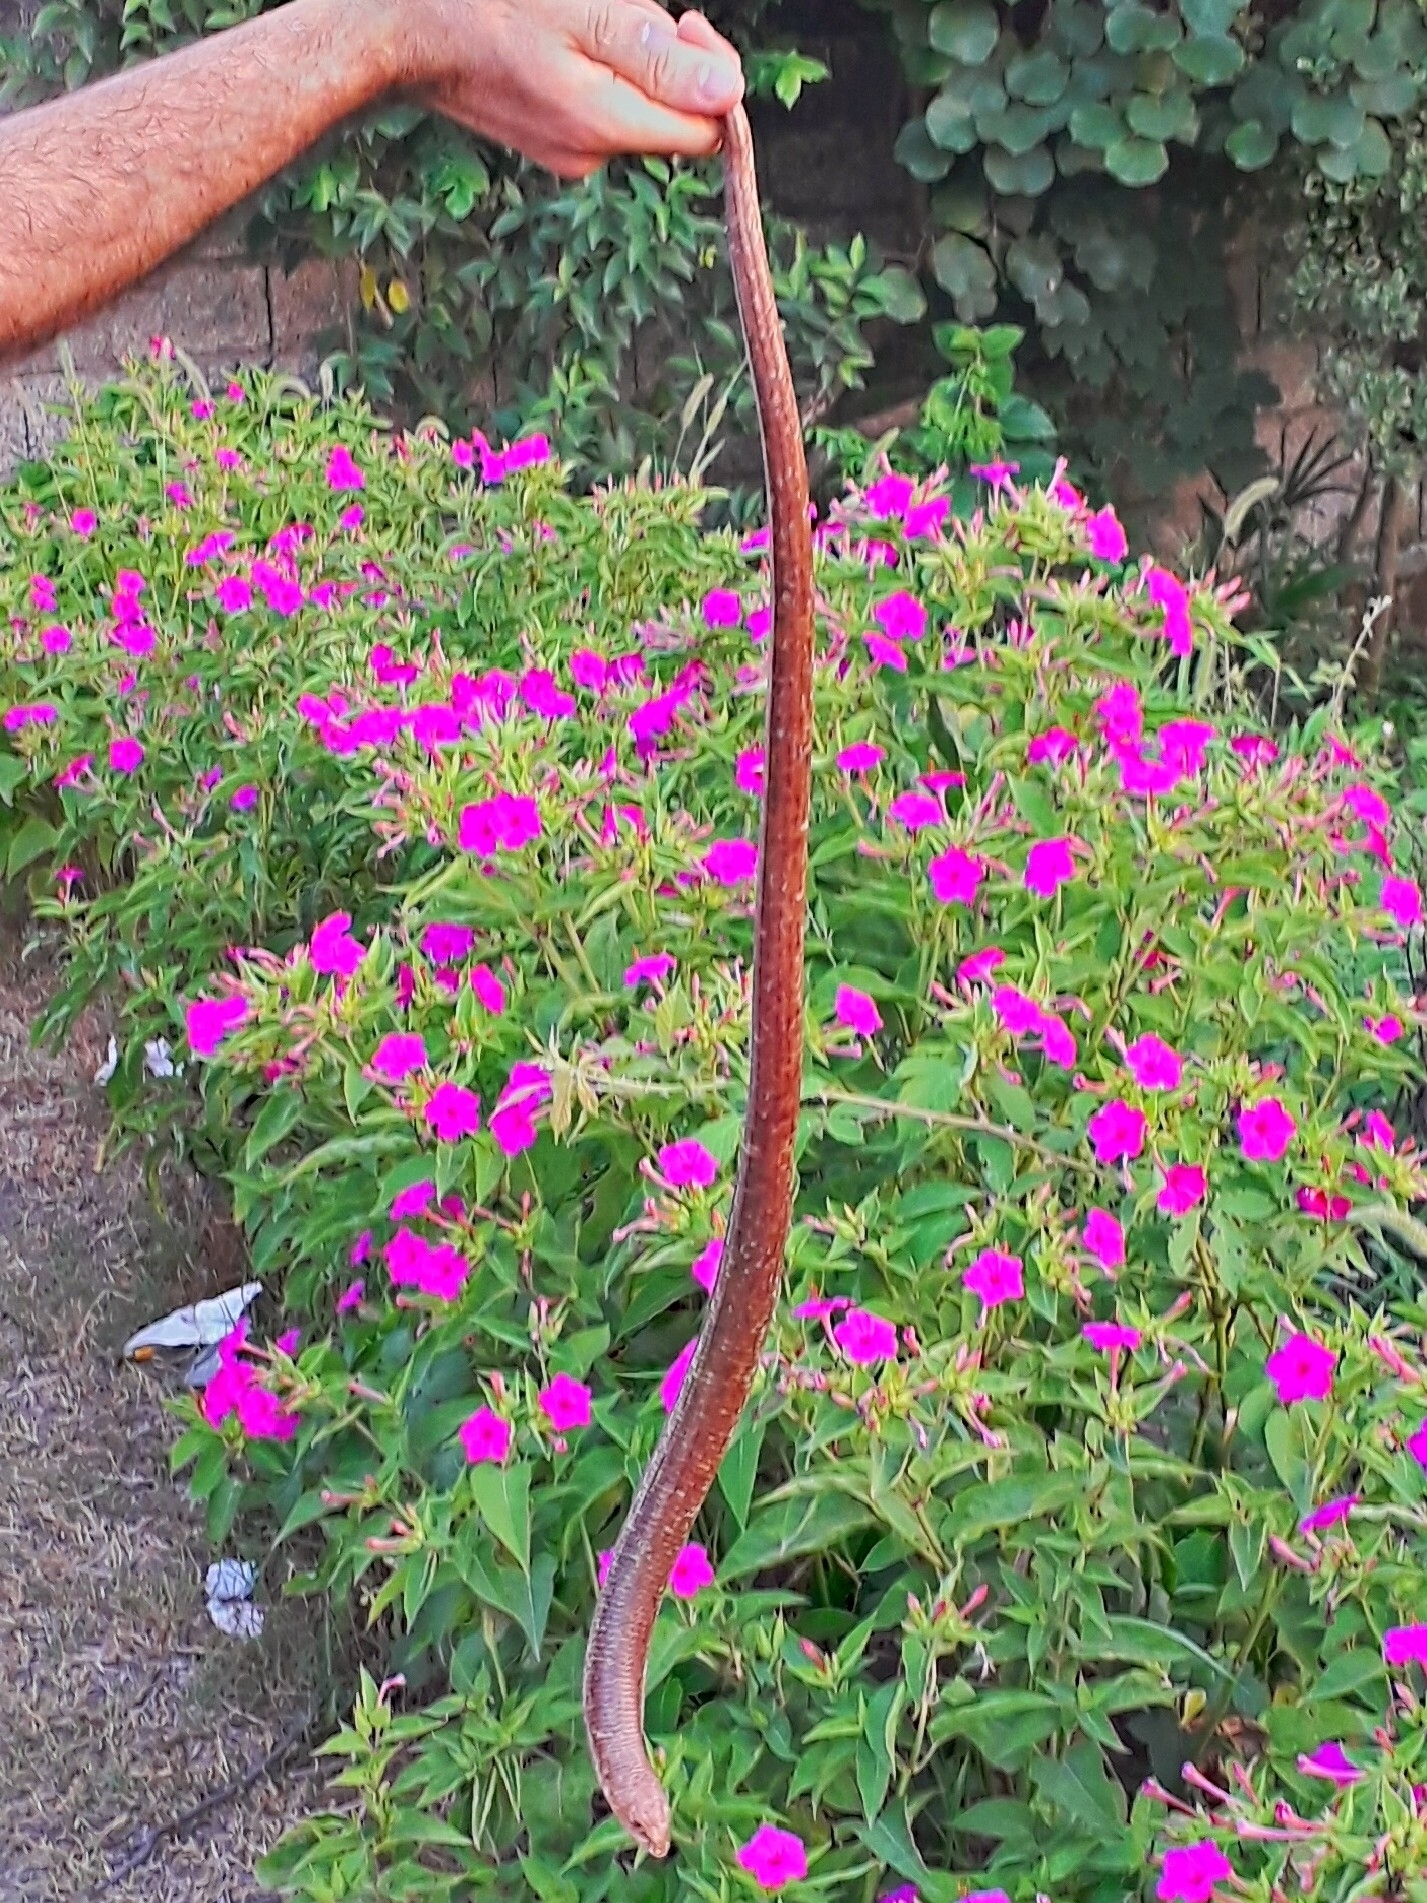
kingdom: Animalia
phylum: Chordata
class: Squamata
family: Anguidae
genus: Pseudopus
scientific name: Pseudopus apodus
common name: European glass lizard
